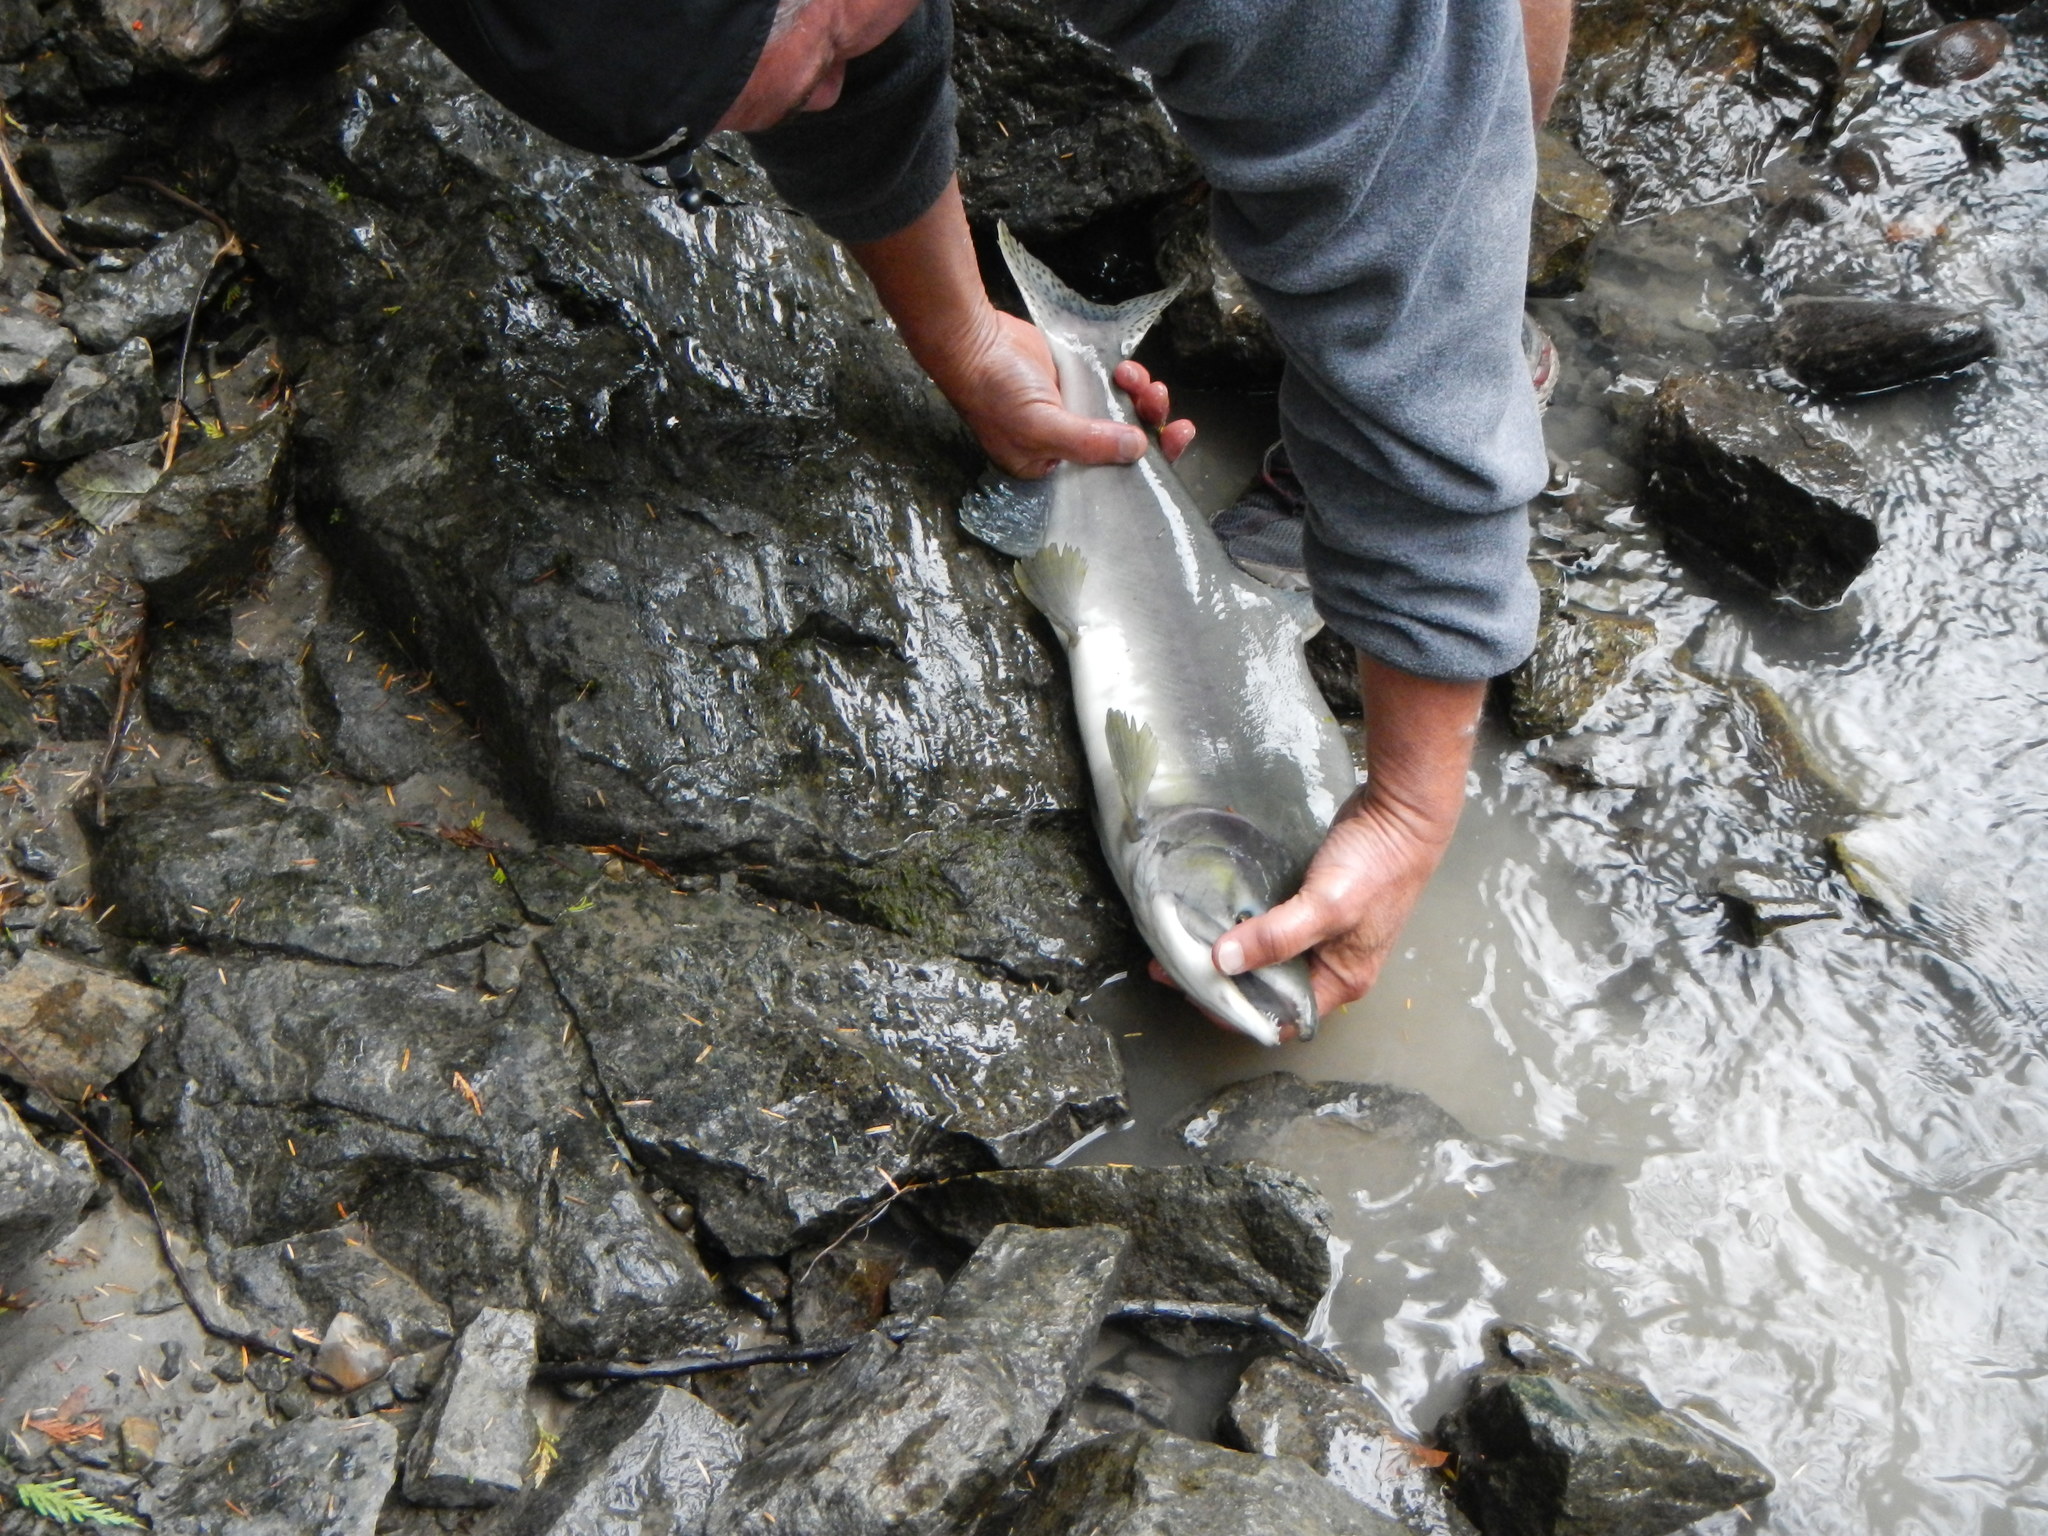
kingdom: Animalia
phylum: Chordata
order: Salmoniformes
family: Salmonidae
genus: Oncorhynchus
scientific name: Oncorhynchus gorbuscha
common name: Humpback salmon
